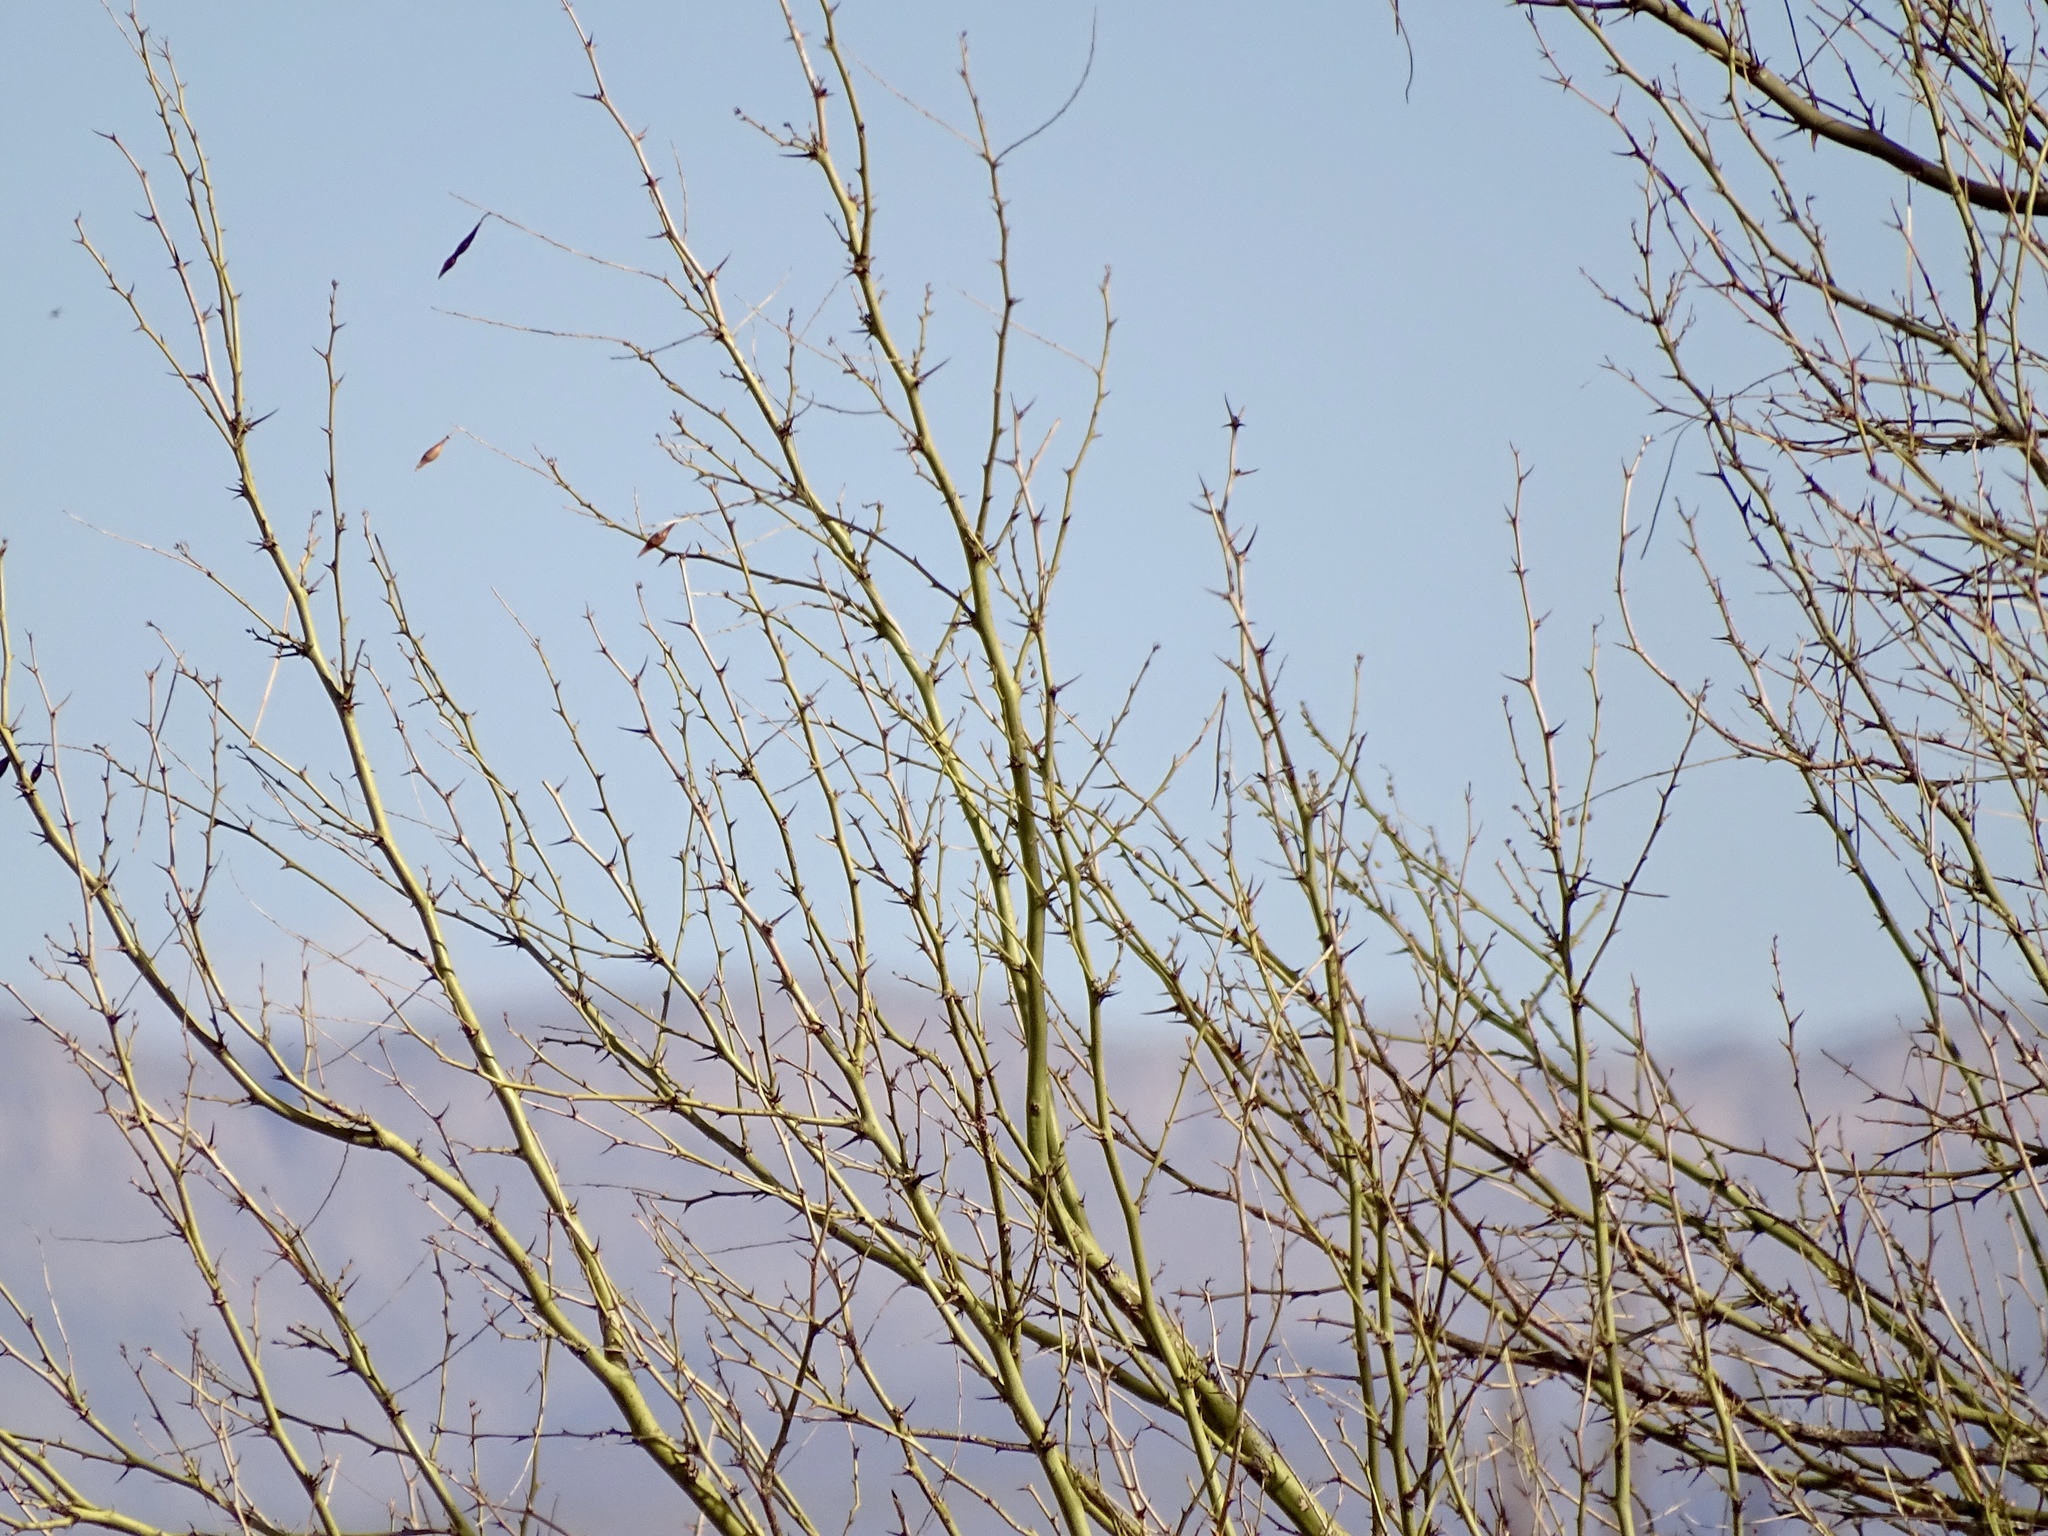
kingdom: Plantae
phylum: Tracheophyta
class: Magnoliopsida
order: Fabales
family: Fabaceae
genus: Parkinsonia
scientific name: Parkinsonia aculeata
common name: Jerusalem thorn
